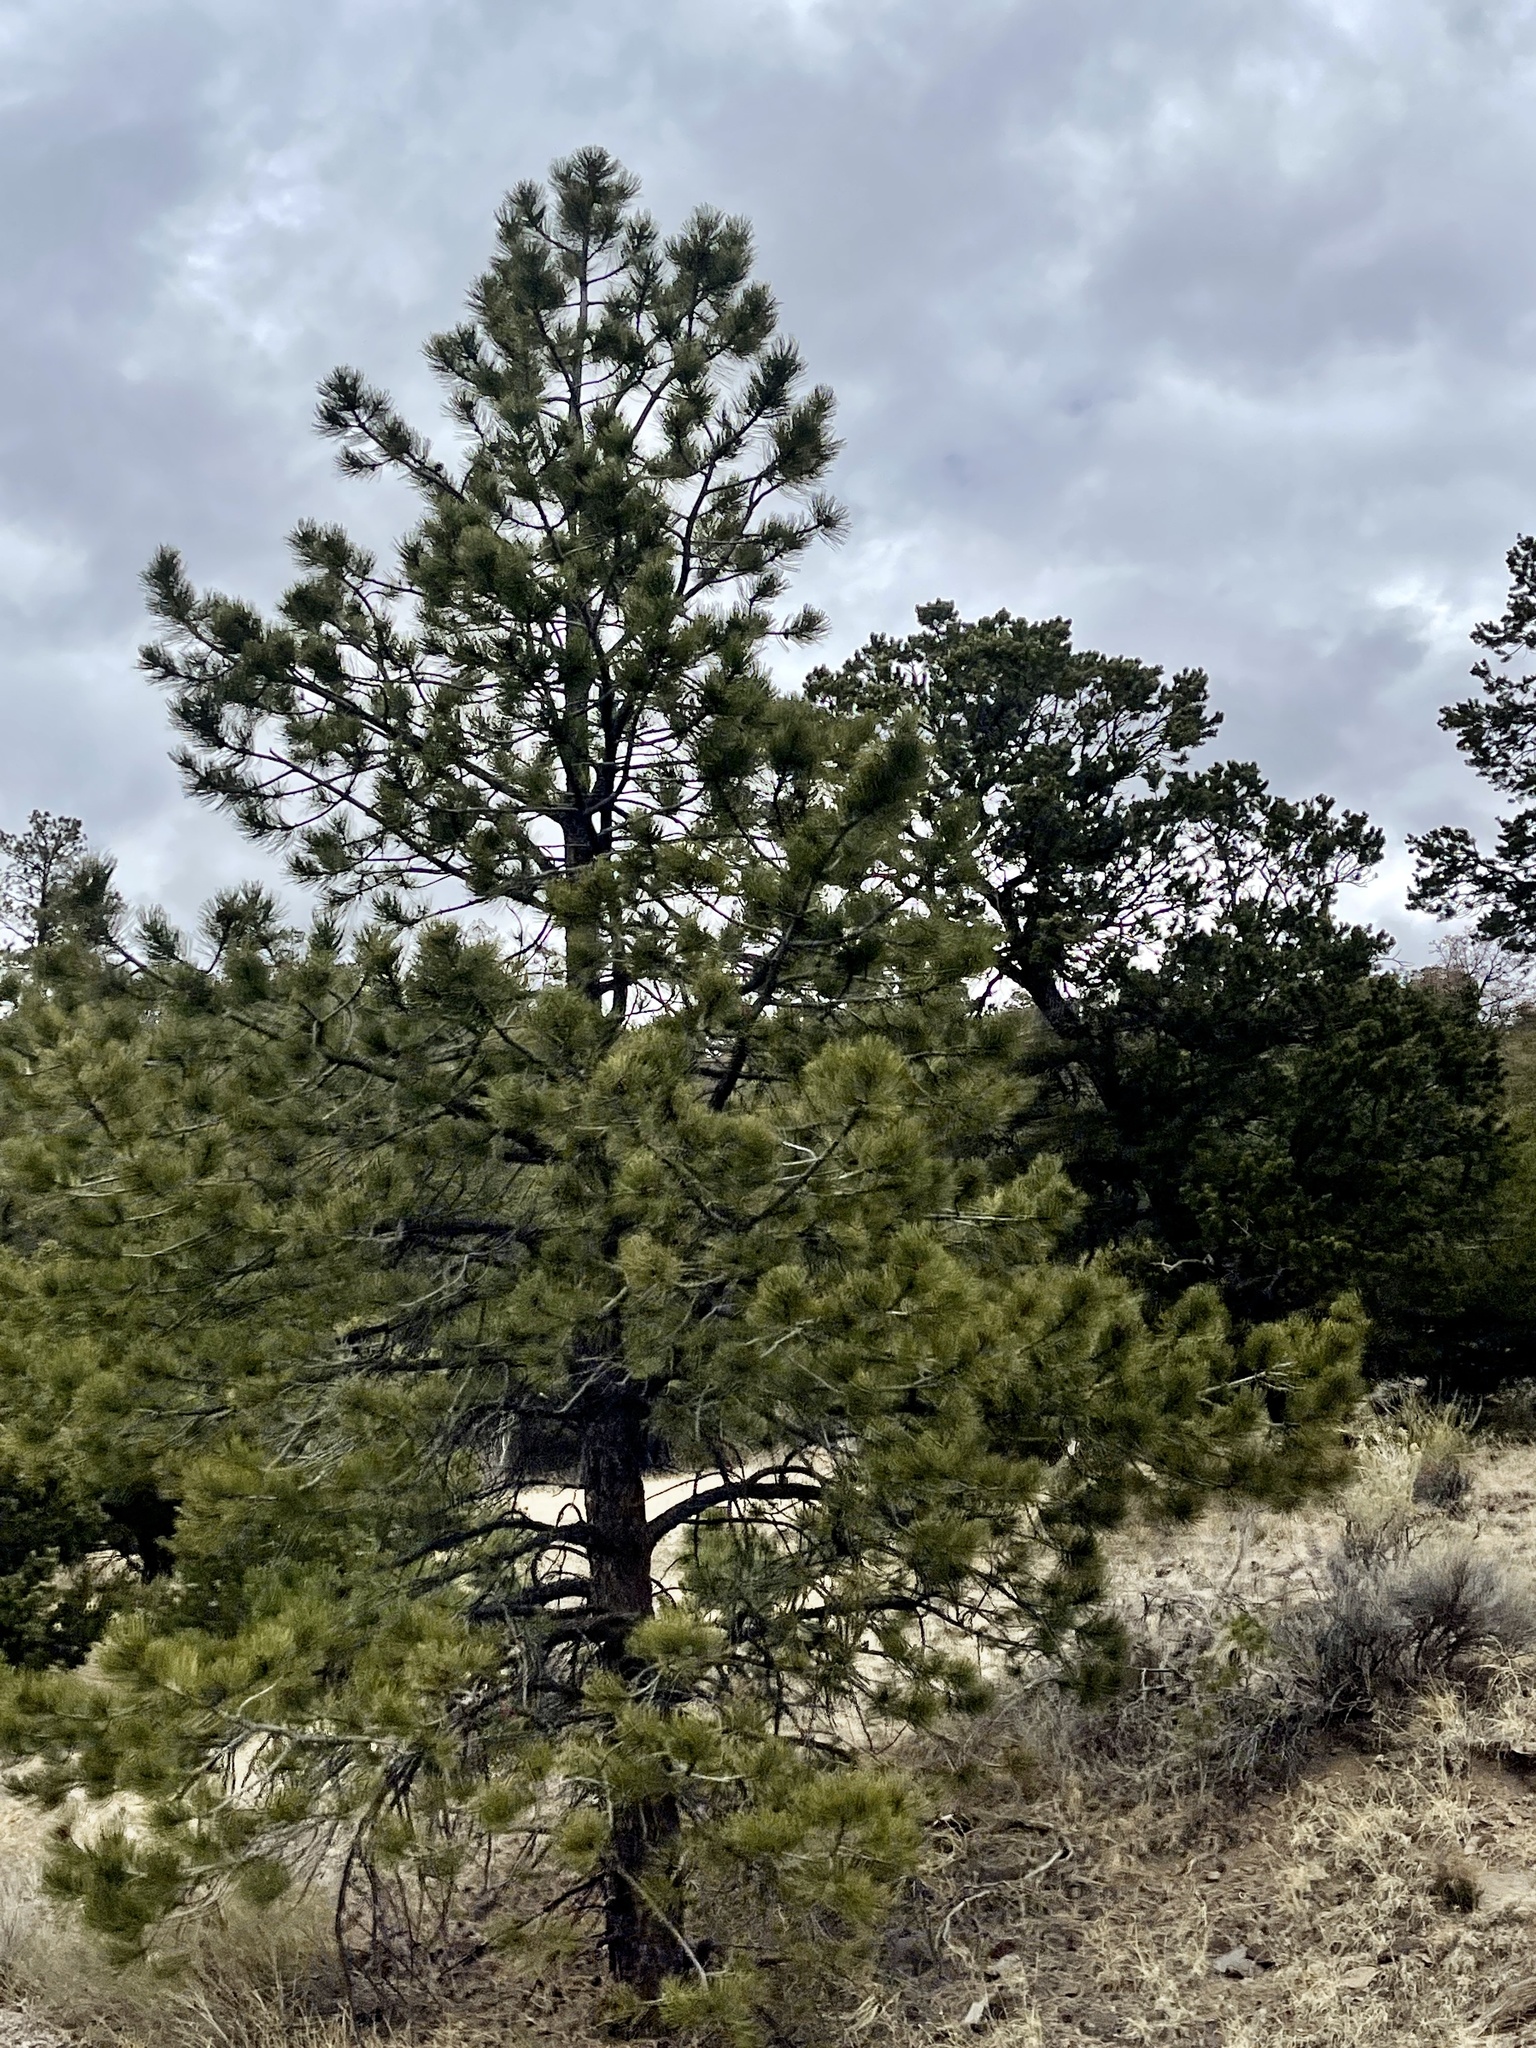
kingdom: Plantae
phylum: Tracheophyta
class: Pinopsida
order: Pinales
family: Pinaceae
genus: Pinus
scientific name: Pinus ponderosa
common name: Western yellow-pine
